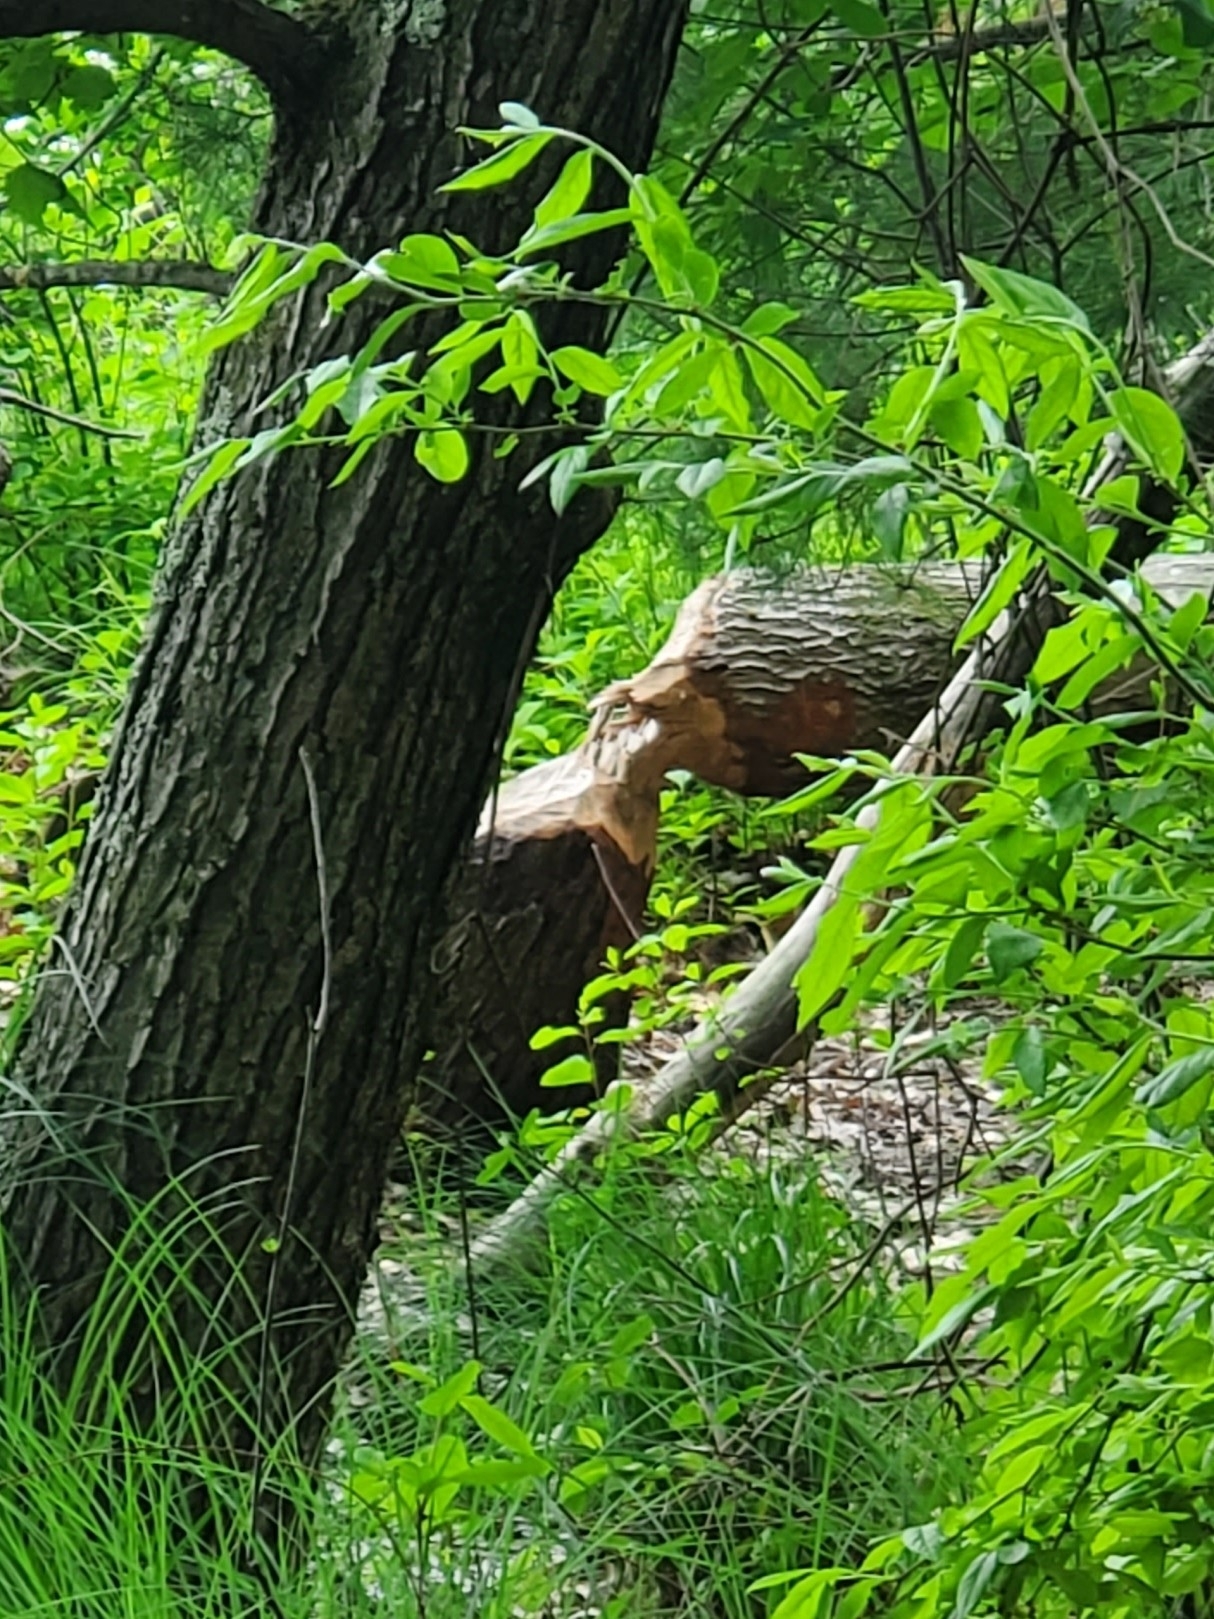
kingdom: Animalia
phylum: Chordata
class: Mammalia
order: Rodentia
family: Castoridae
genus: Castor
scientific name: Castor canadensis
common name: American beaver
